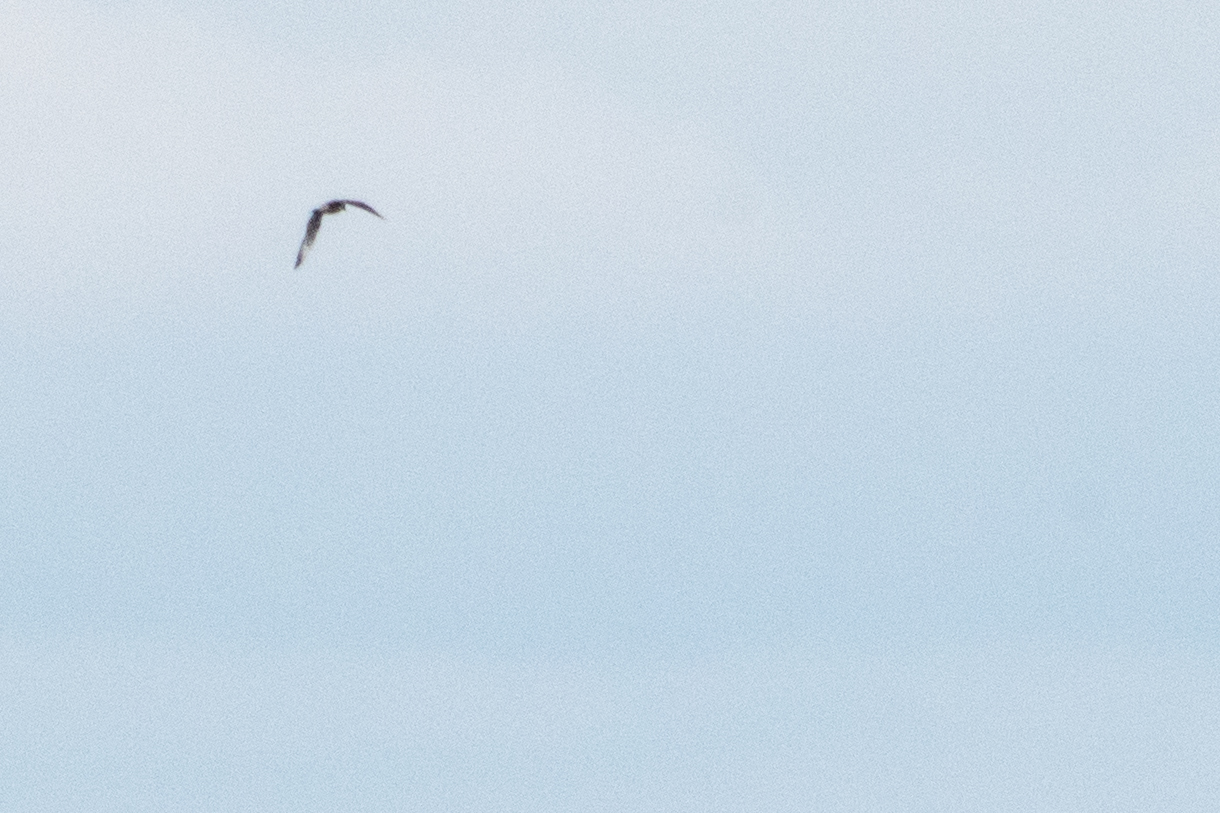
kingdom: Animalia
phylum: Chordata
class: Aves
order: Charadriiformes
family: Stercorariidae
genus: Stercorarius
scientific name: Stercorarius parasiticus
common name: Parasitic jaeger
